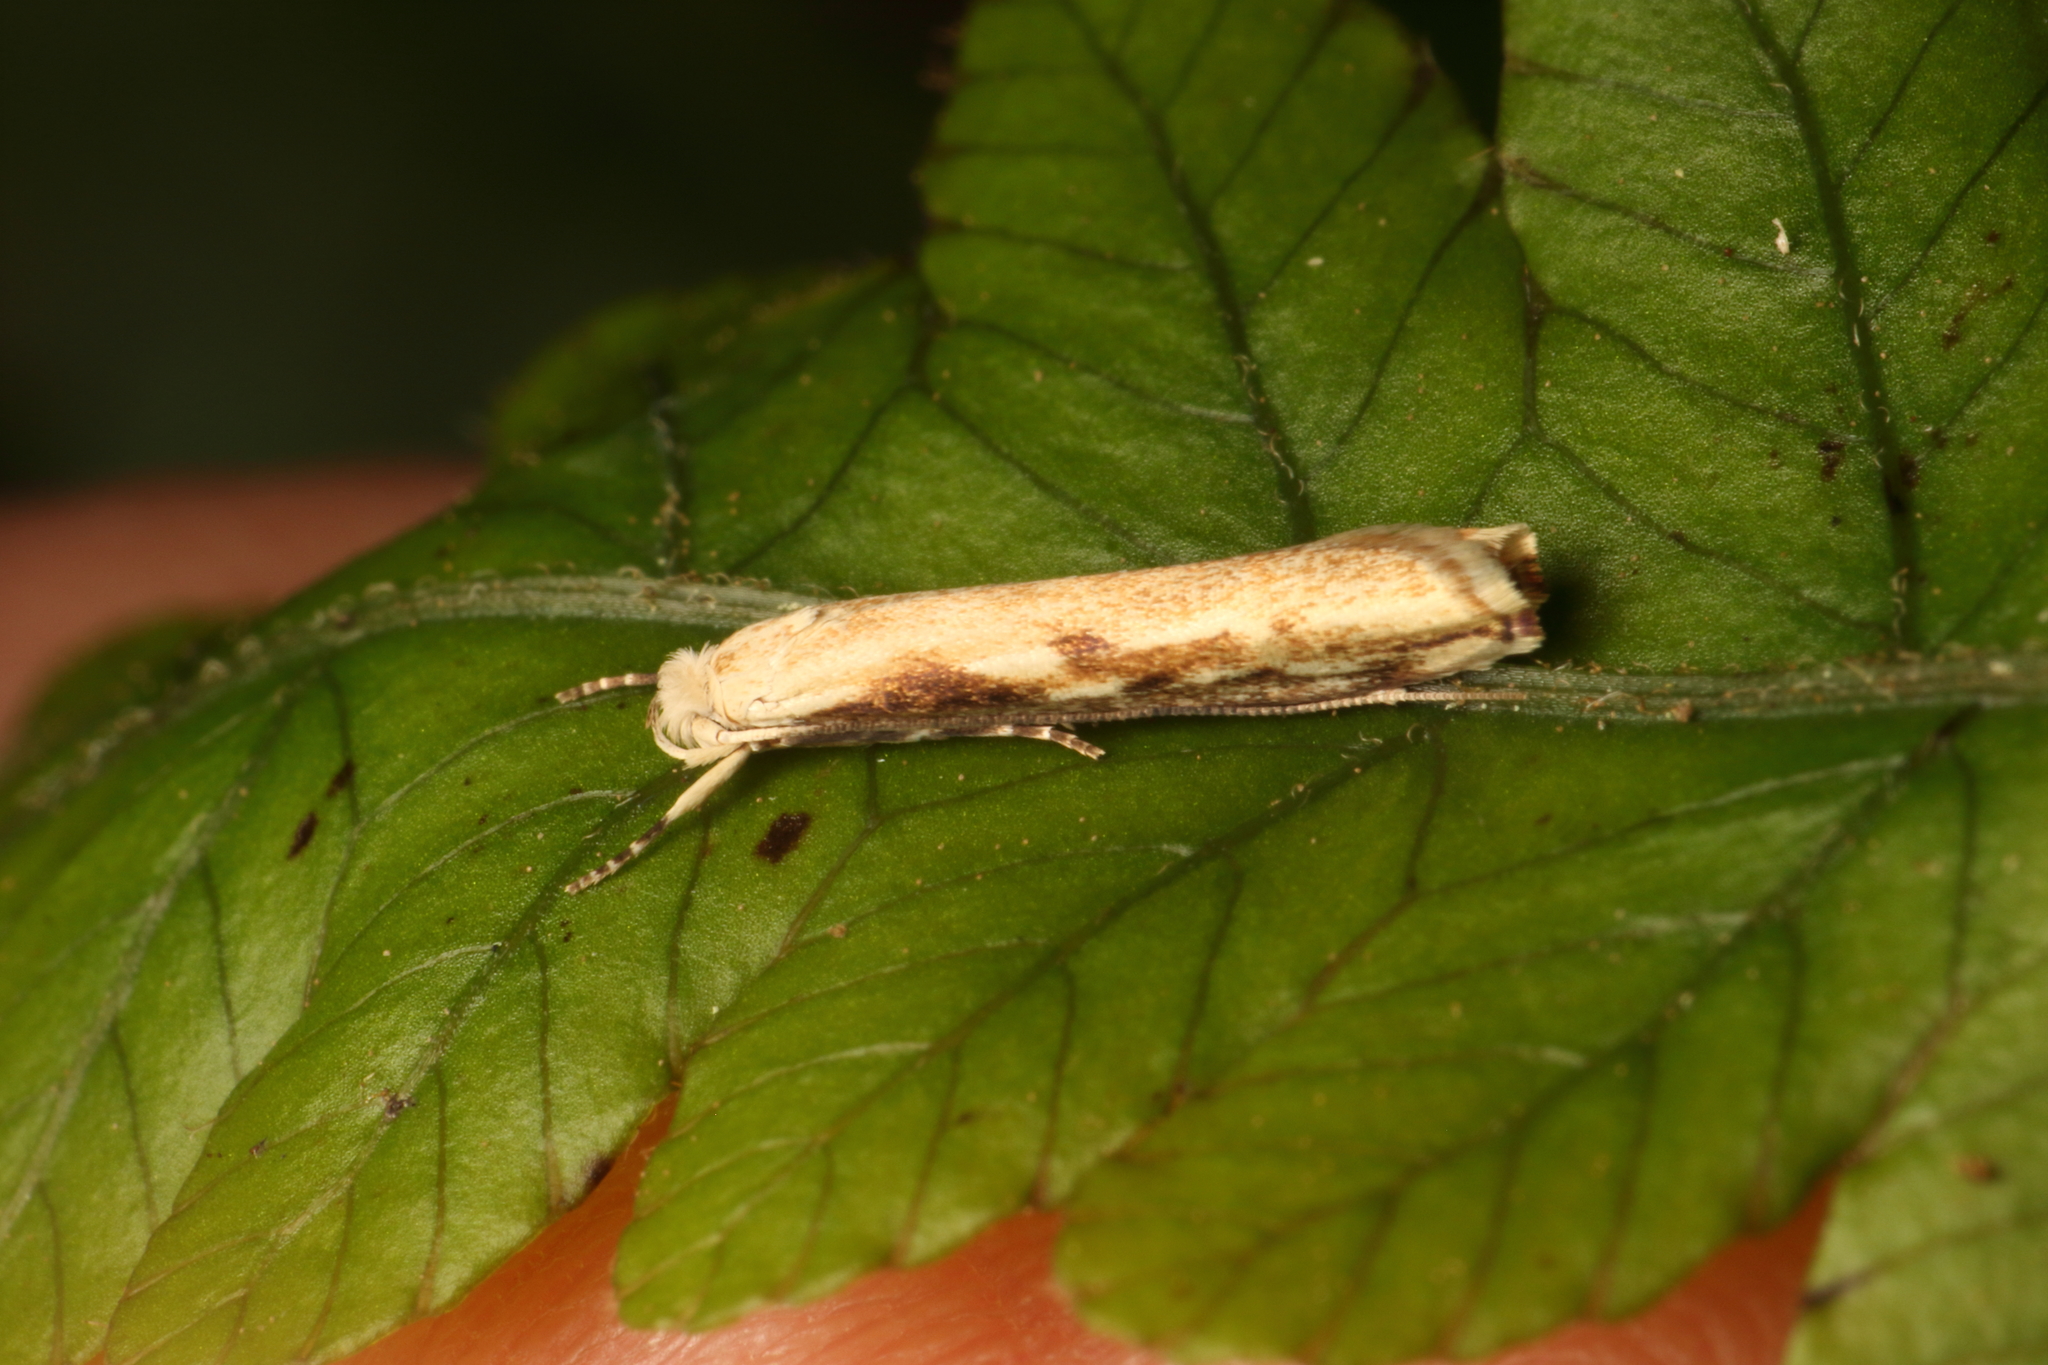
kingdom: Animalia
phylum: Arthropoda
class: Insecta
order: Lepidoptera
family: Plutellidae
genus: Dolichernis
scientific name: Dolichernis chloroleuca
